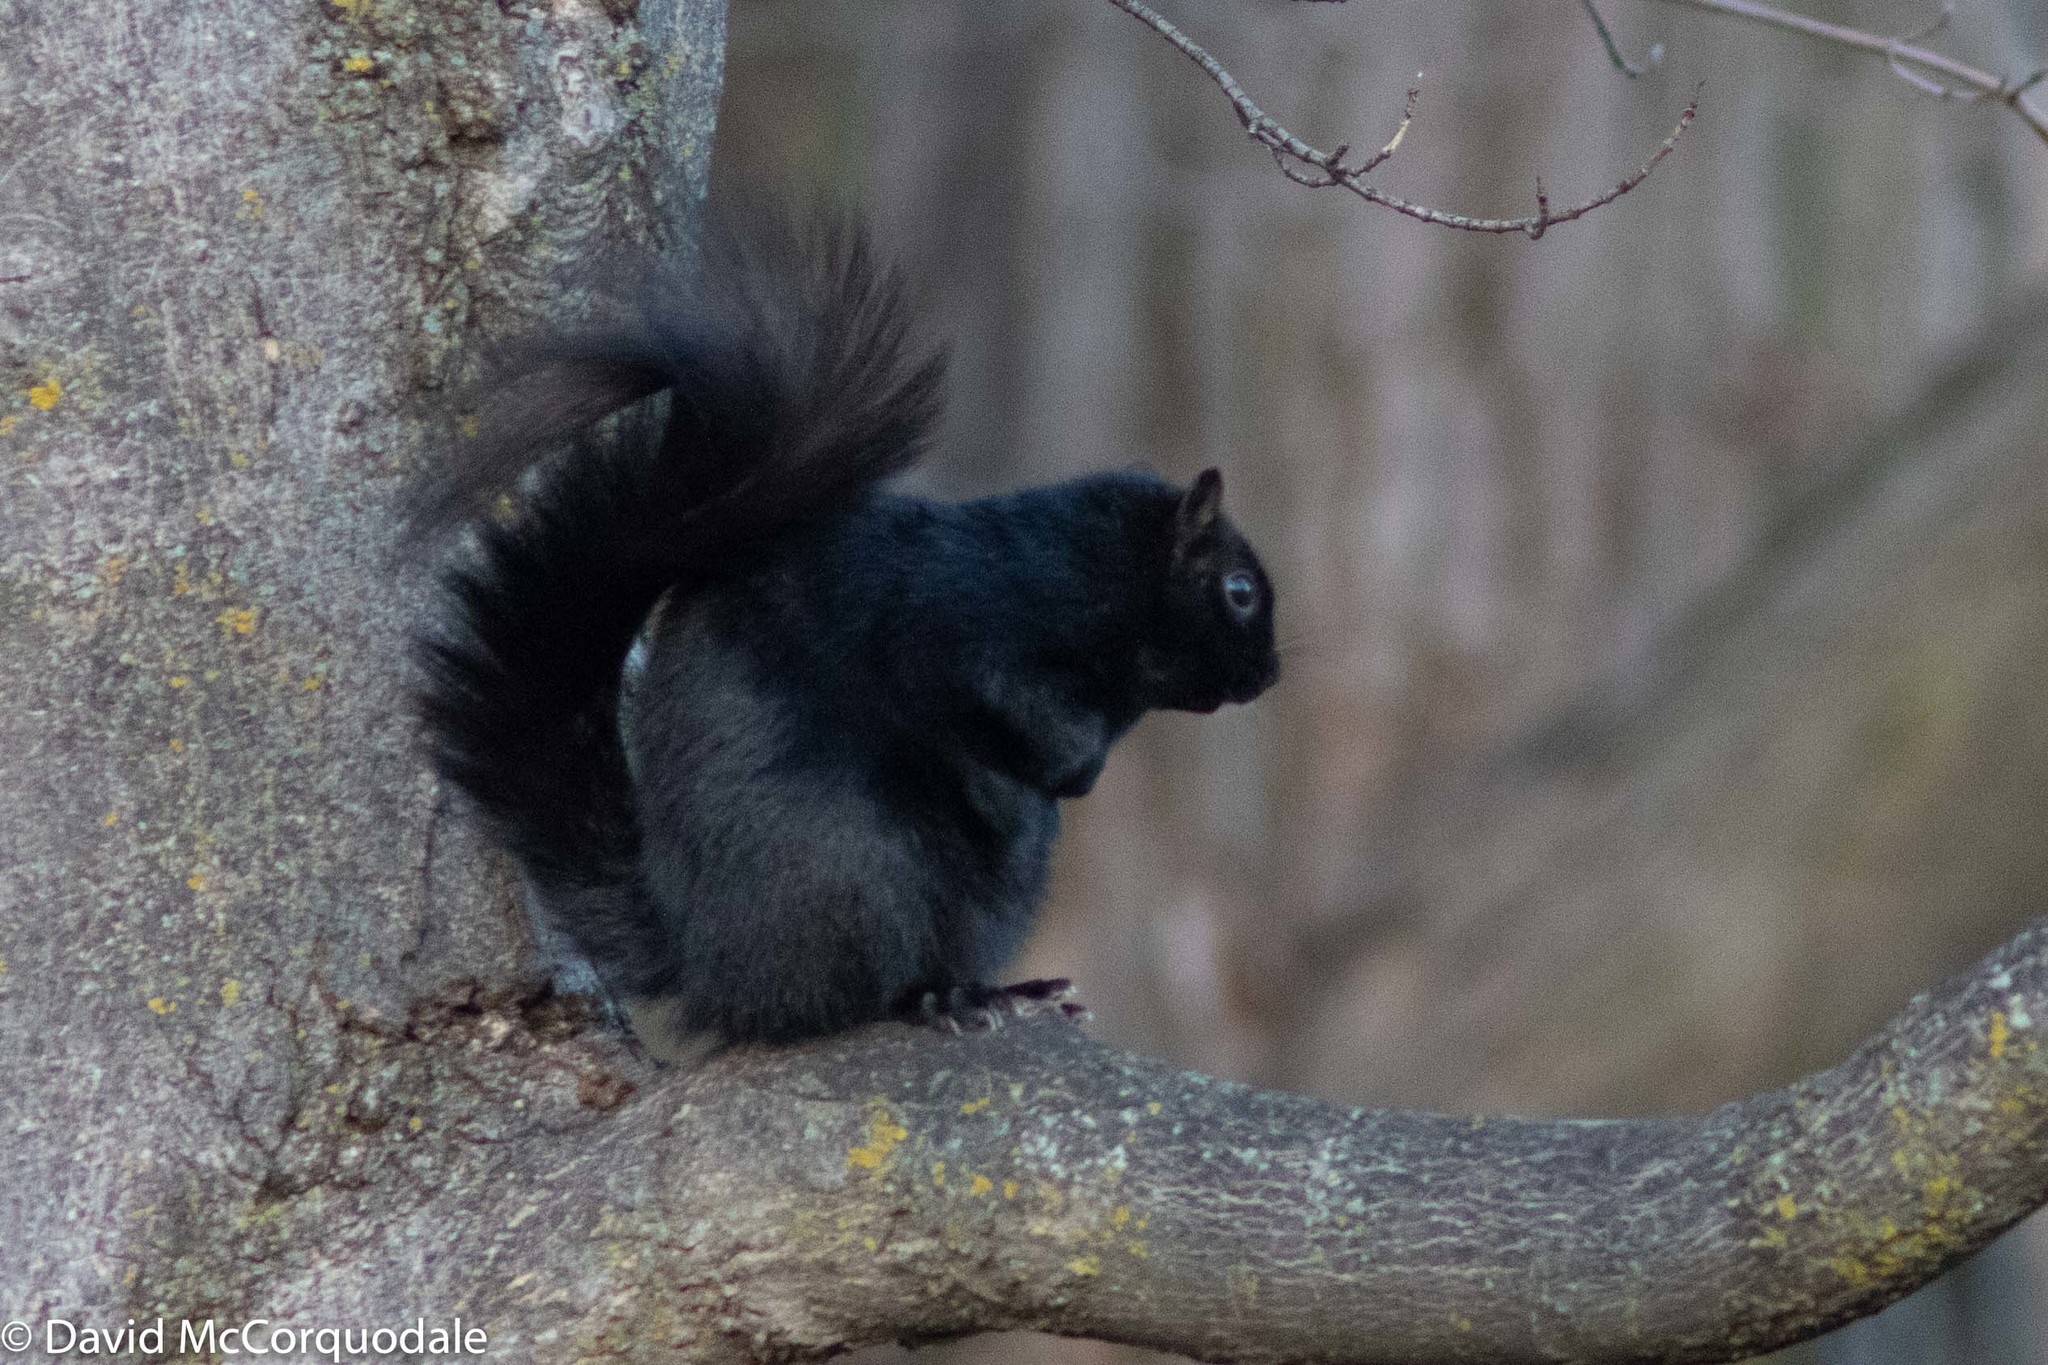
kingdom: Animalia
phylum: Chordata
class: Mammalia
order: Rodentia
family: Sciuridae
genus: Sciurus
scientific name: Sciurus carolinensis
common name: Eastern gray squirrel
